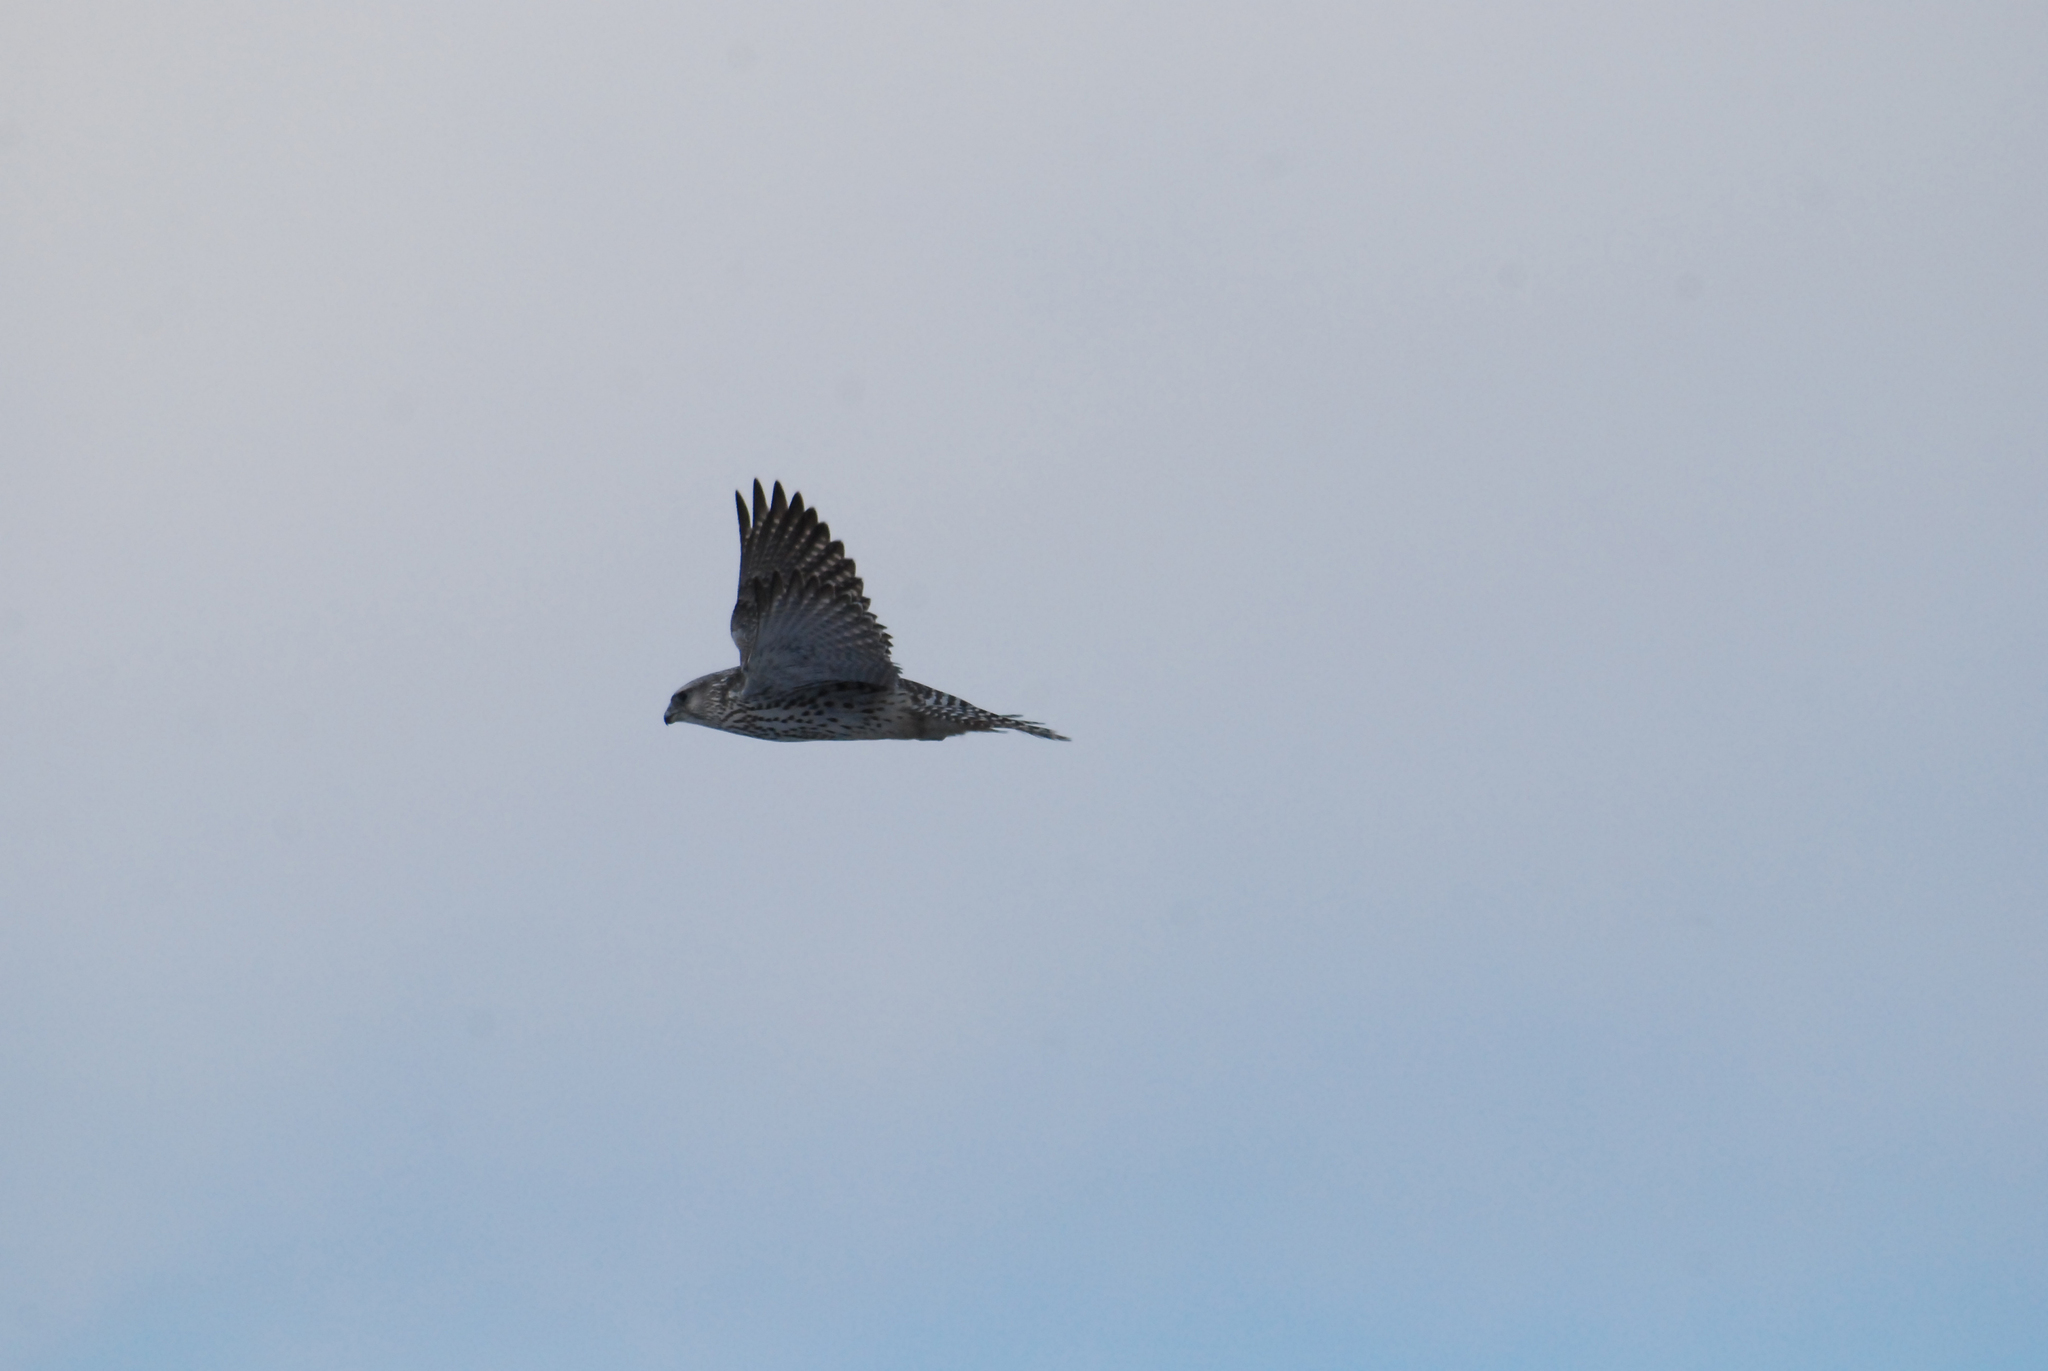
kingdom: Animalia
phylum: Chordata
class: Aves
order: Falconiformes
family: Falconidae
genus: Falco
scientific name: Falco rusticolus
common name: Gyrfalcon
